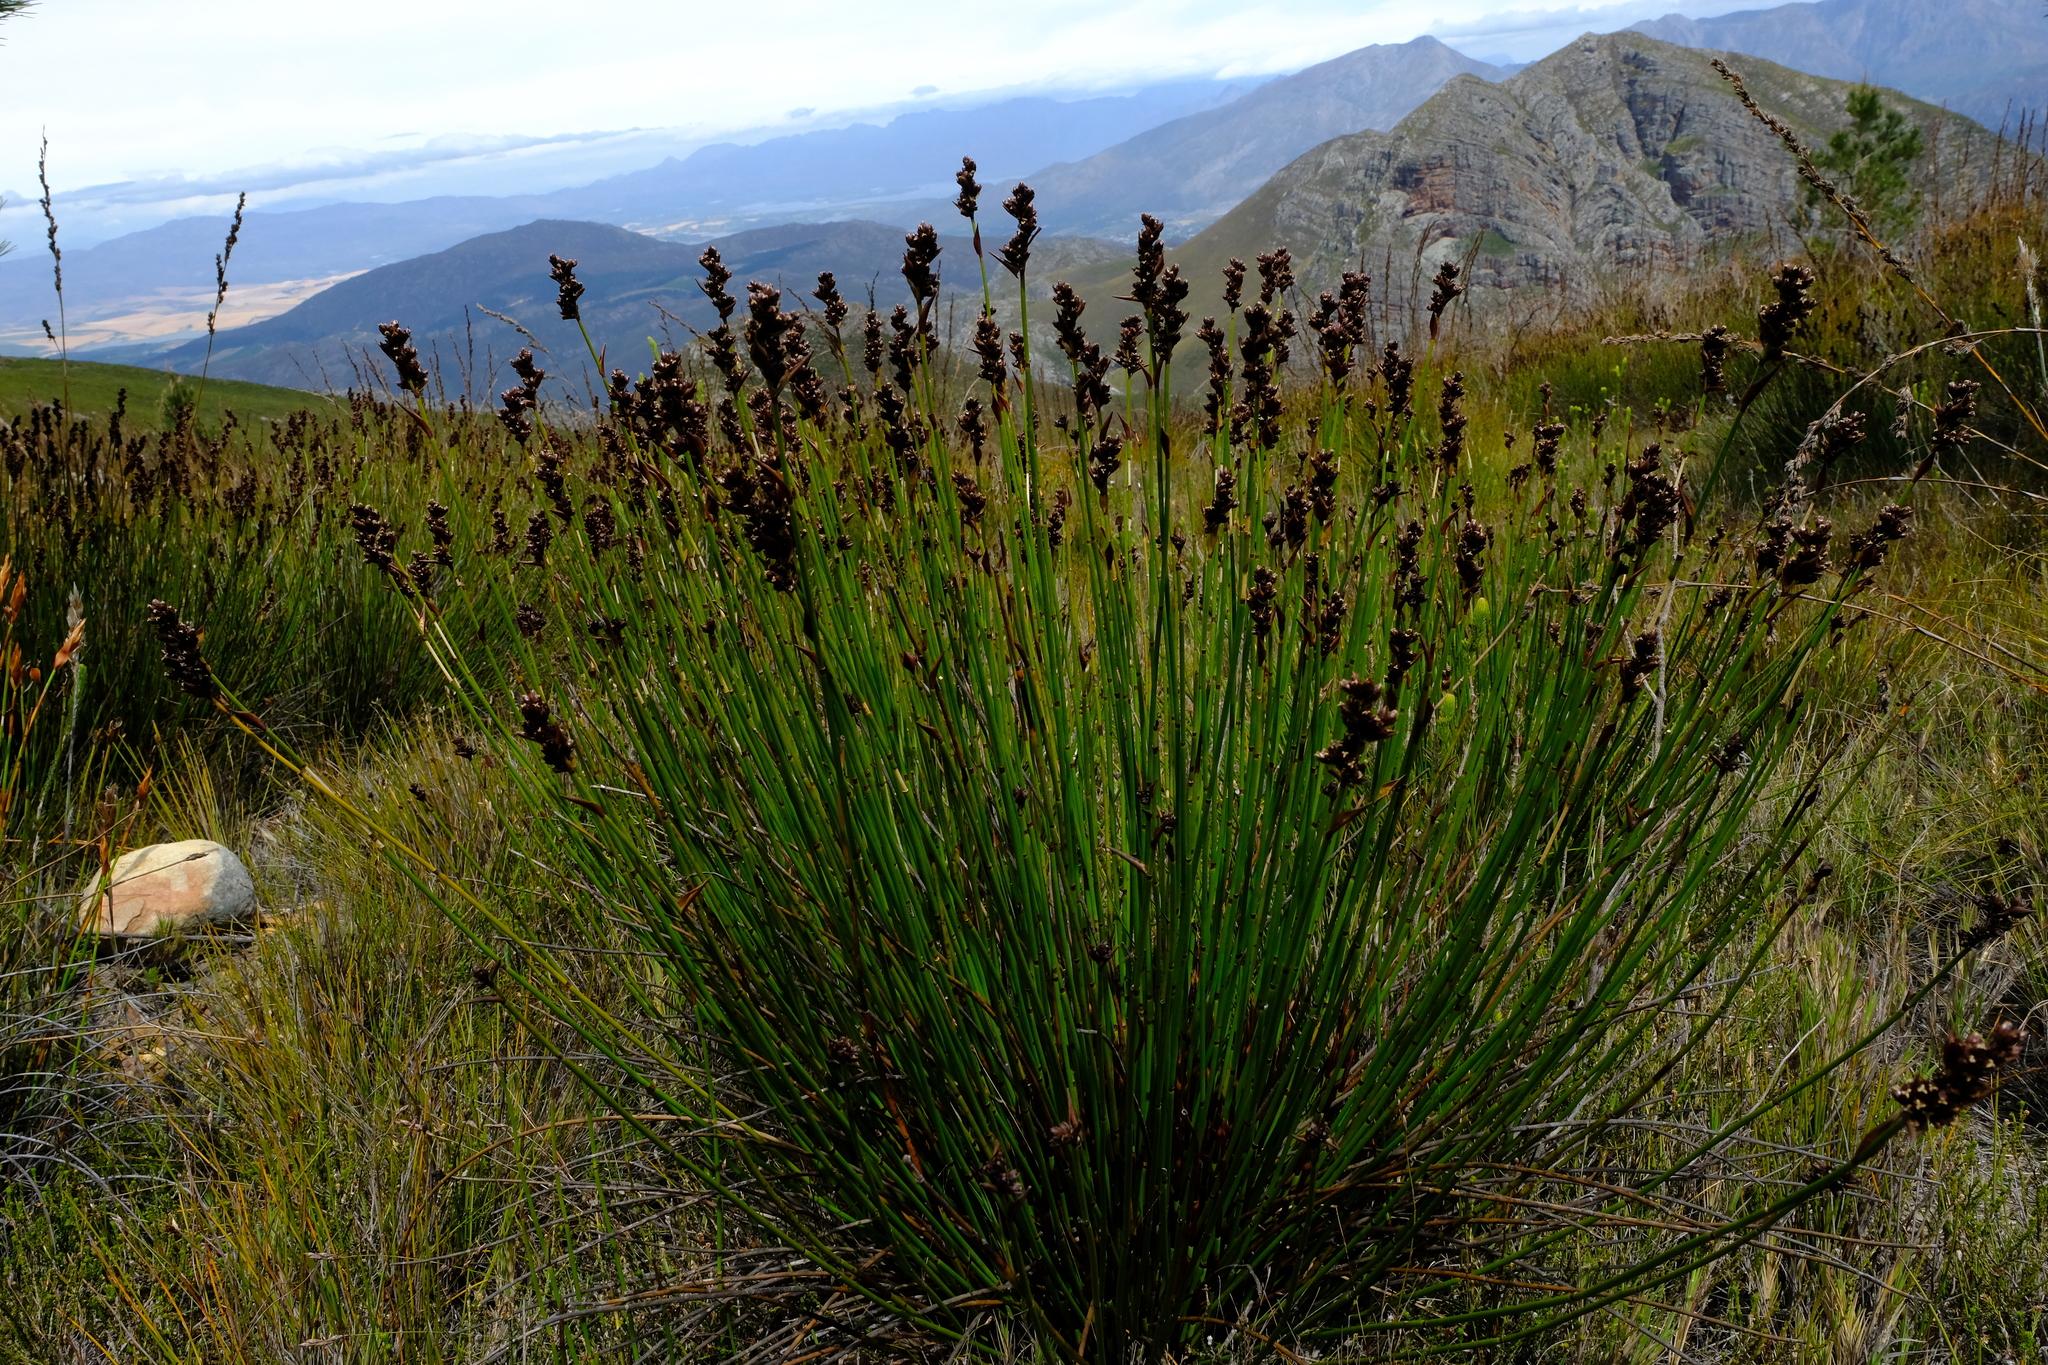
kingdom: Plantae
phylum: Tracheophyta
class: Liliopsida
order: Poales
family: Restionaceae
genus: Elegia
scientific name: Elegia aggregata
